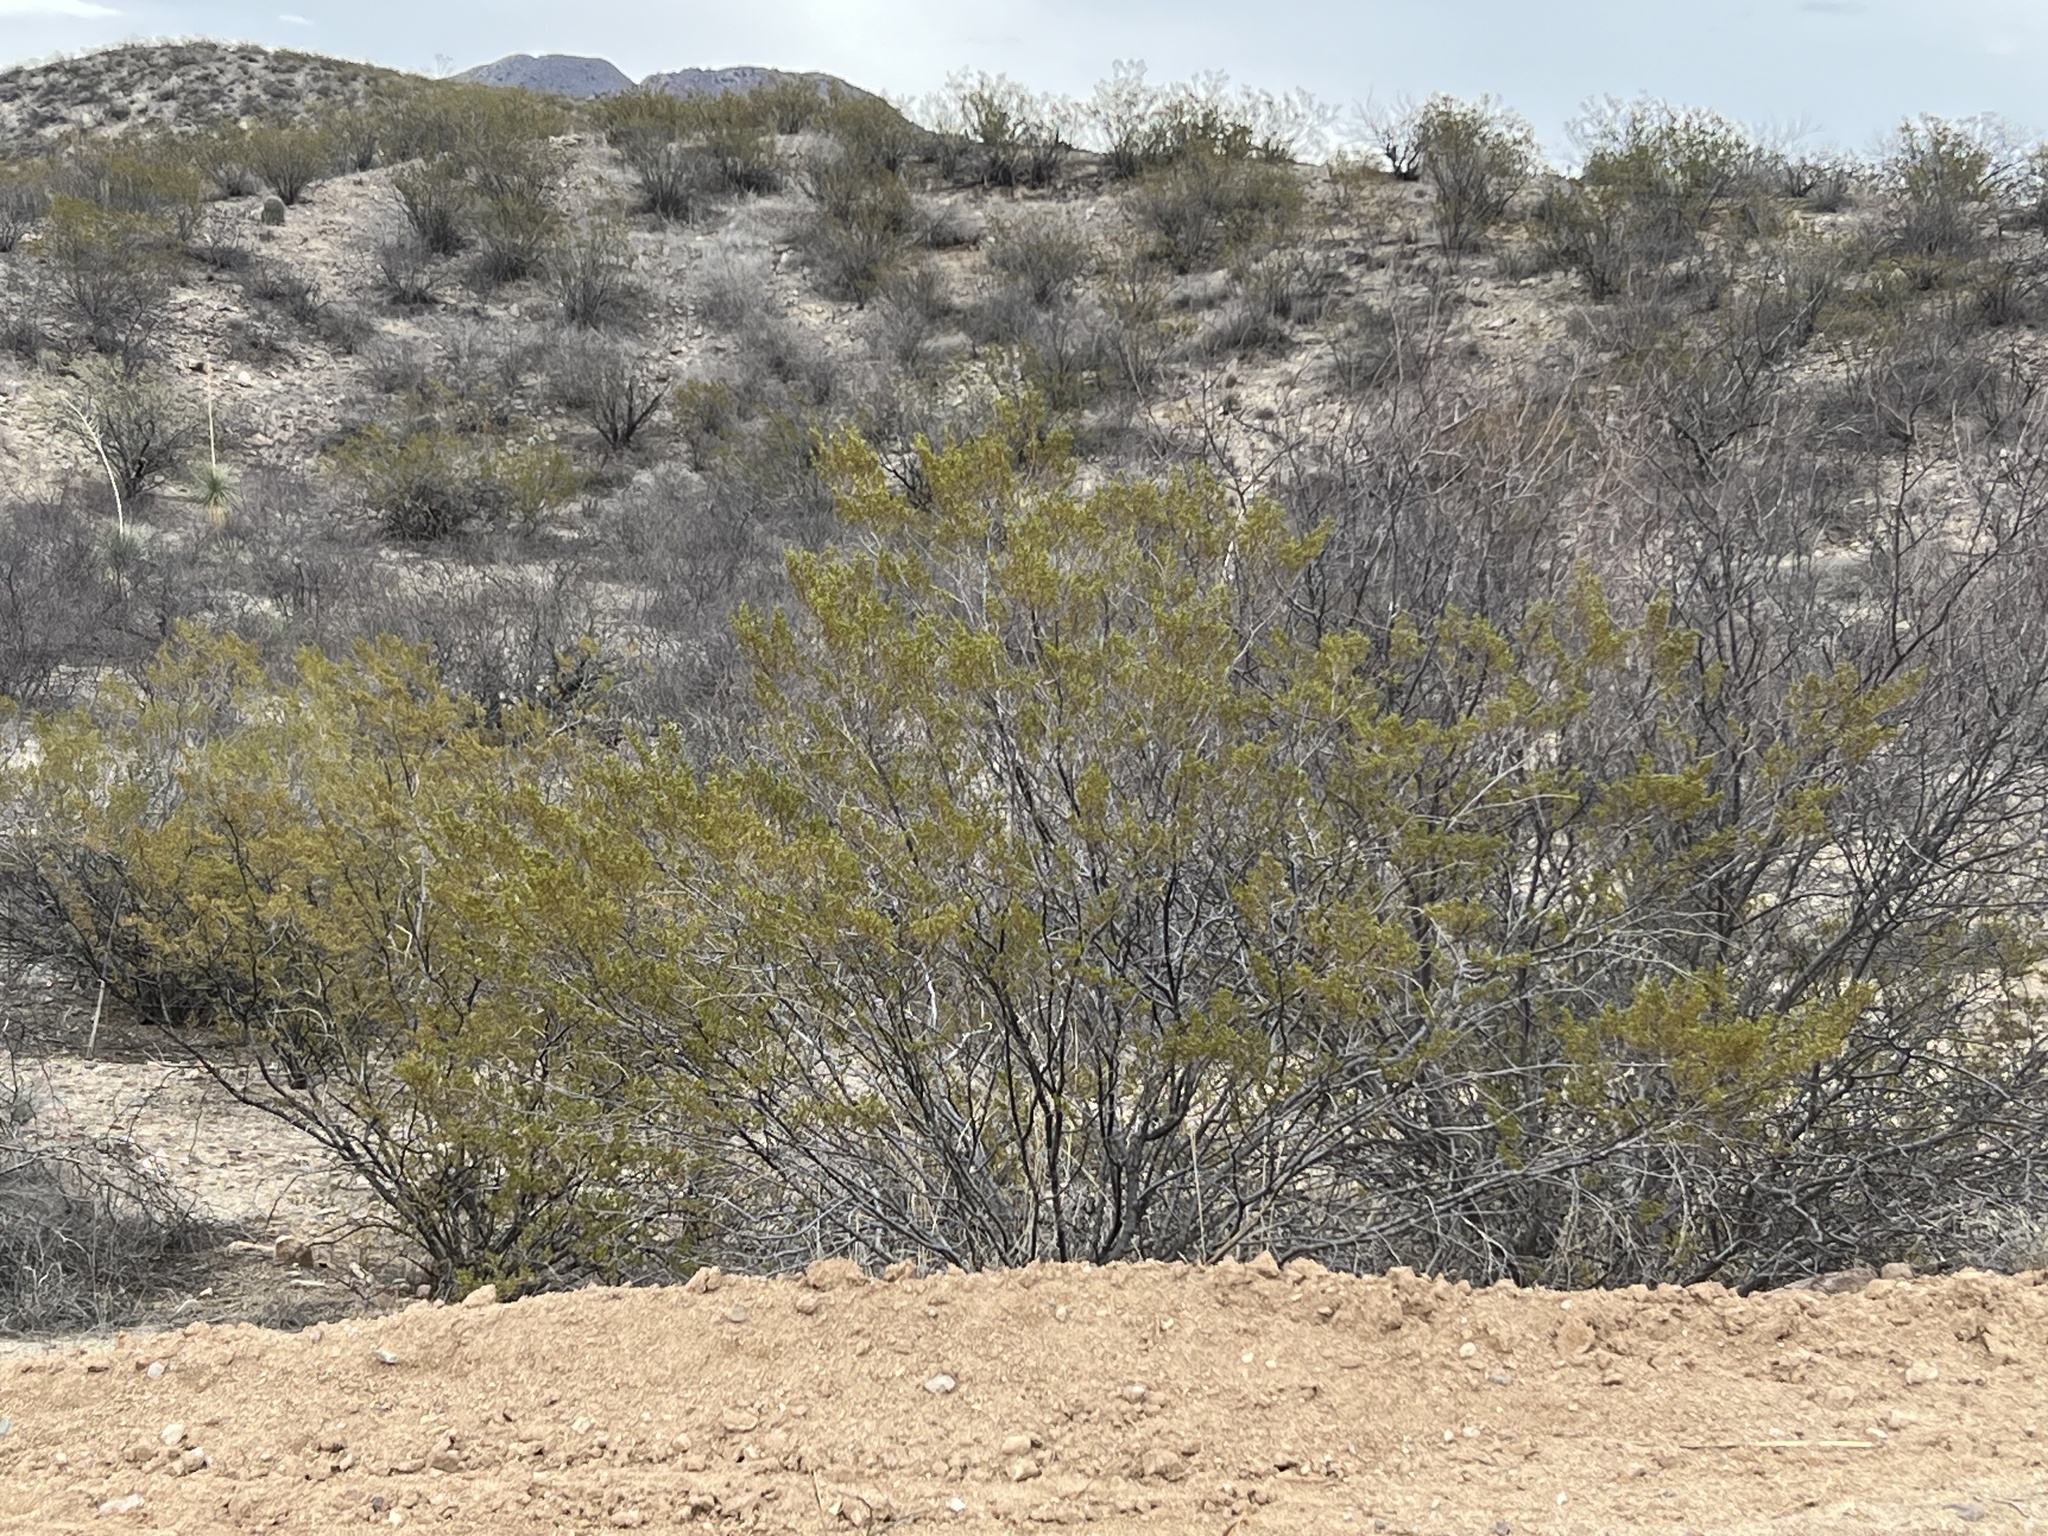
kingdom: Plantae
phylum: Tracheophyta
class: Magnoliopsida
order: Zygophyllales
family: Zygophyllaceae
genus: Larrea
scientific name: Larrea tridentata
